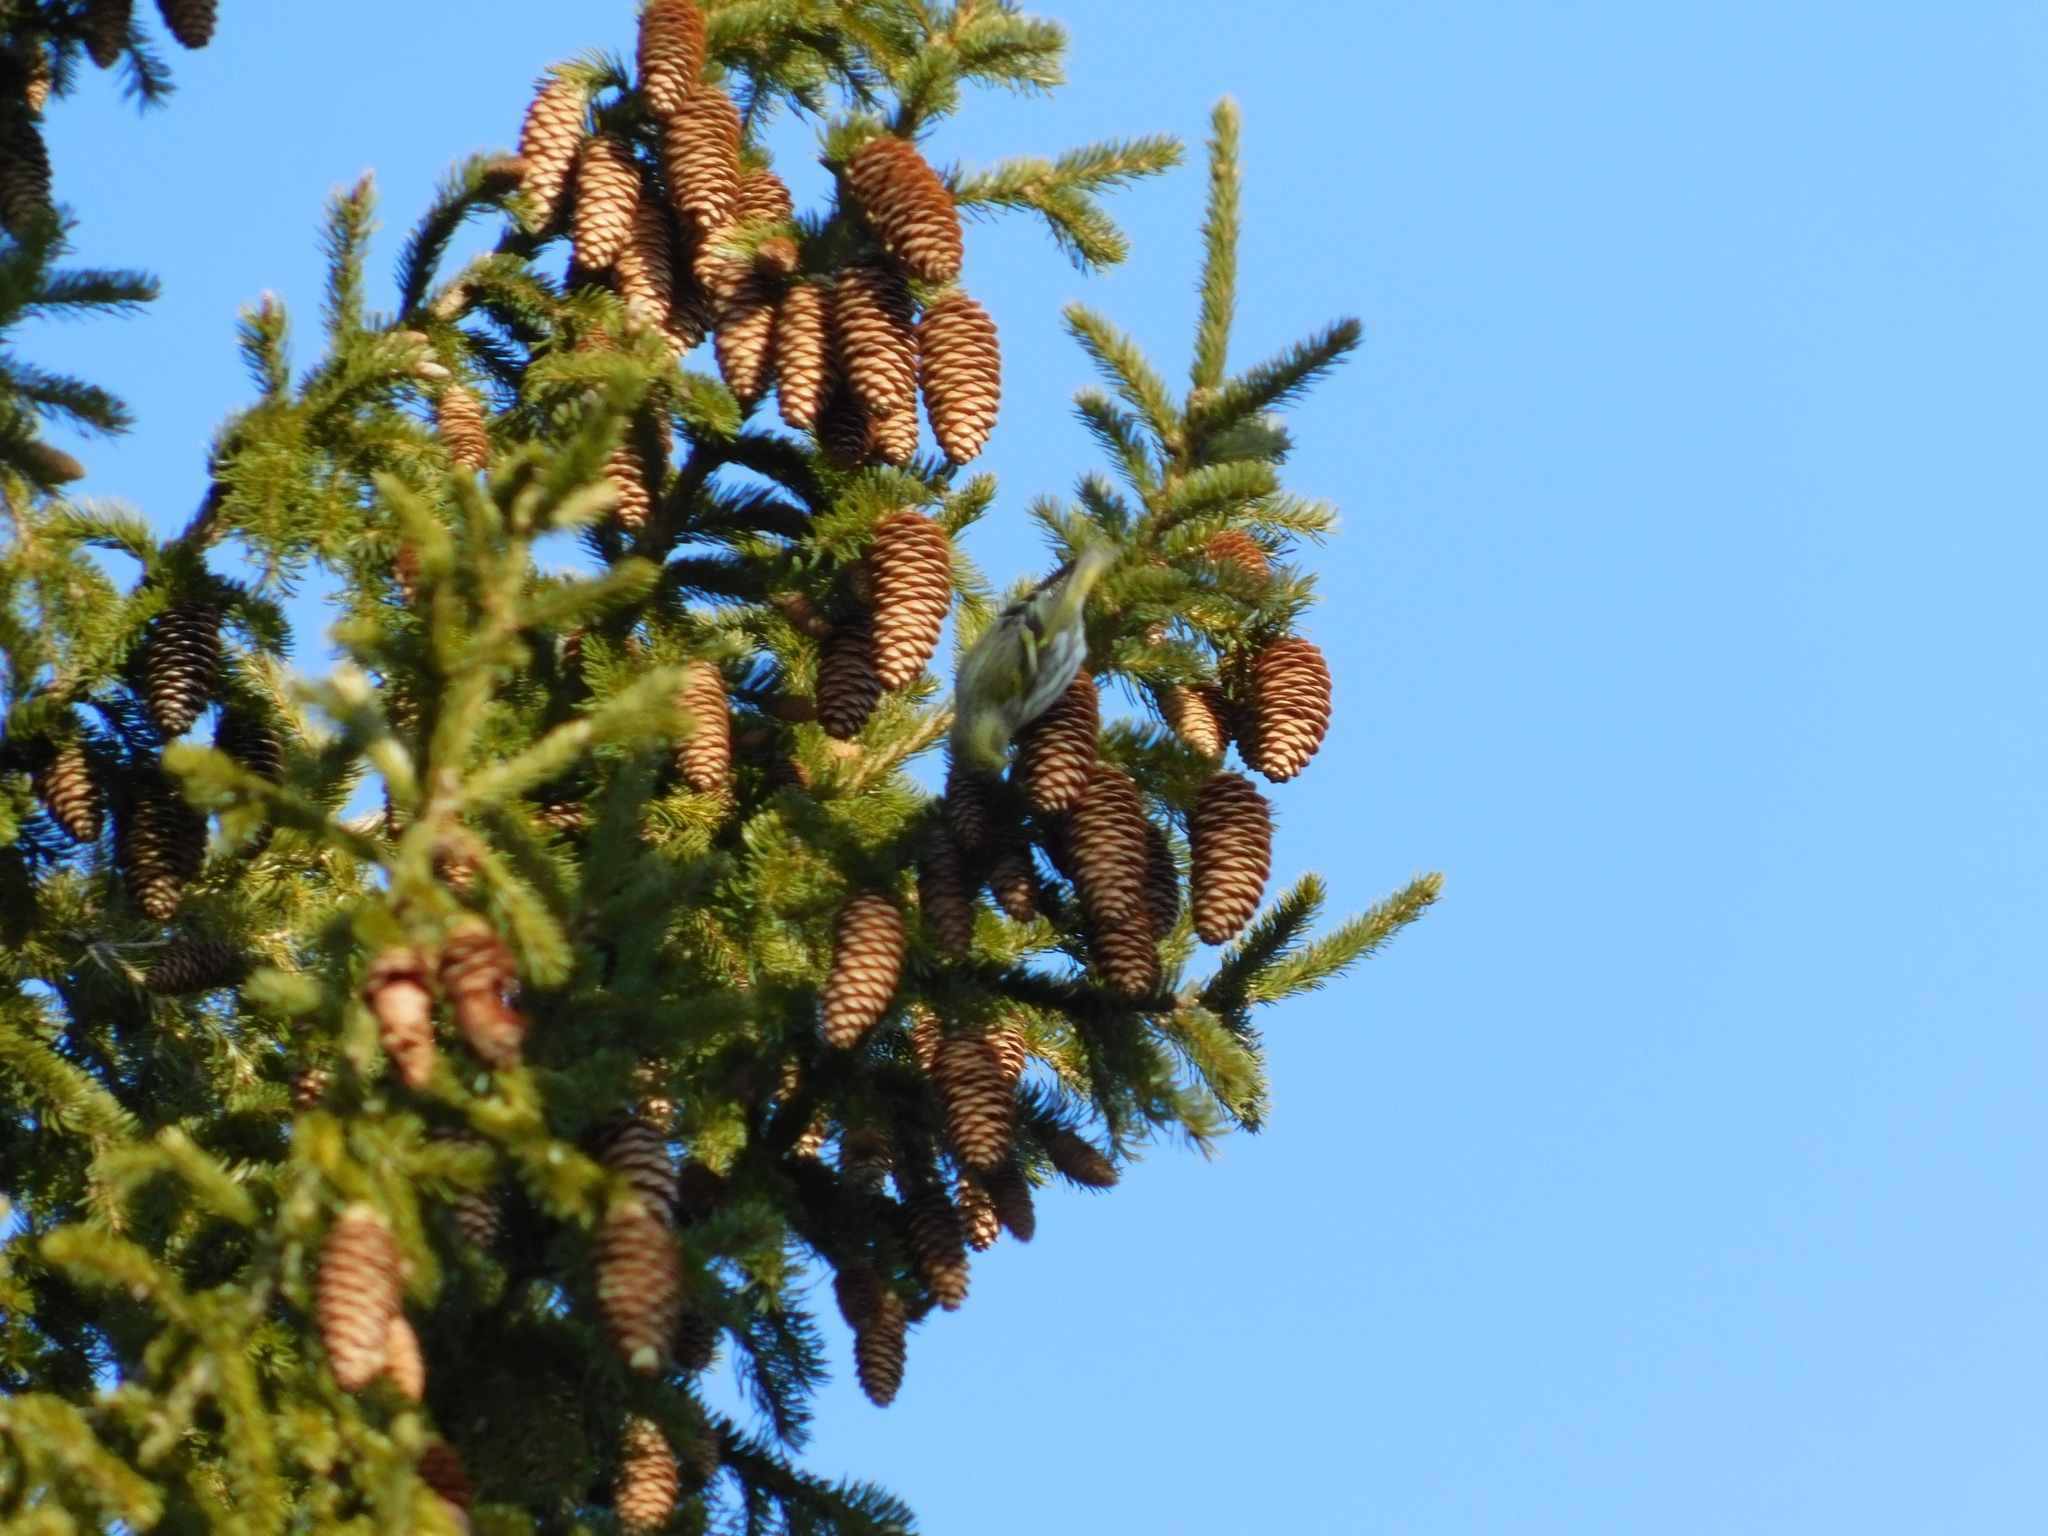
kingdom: Animalia
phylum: Chordata
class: Aves
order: Passeriformes
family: Fringillidae
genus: Spinus
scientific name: Spinus spinus
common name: Eurasian siskin
